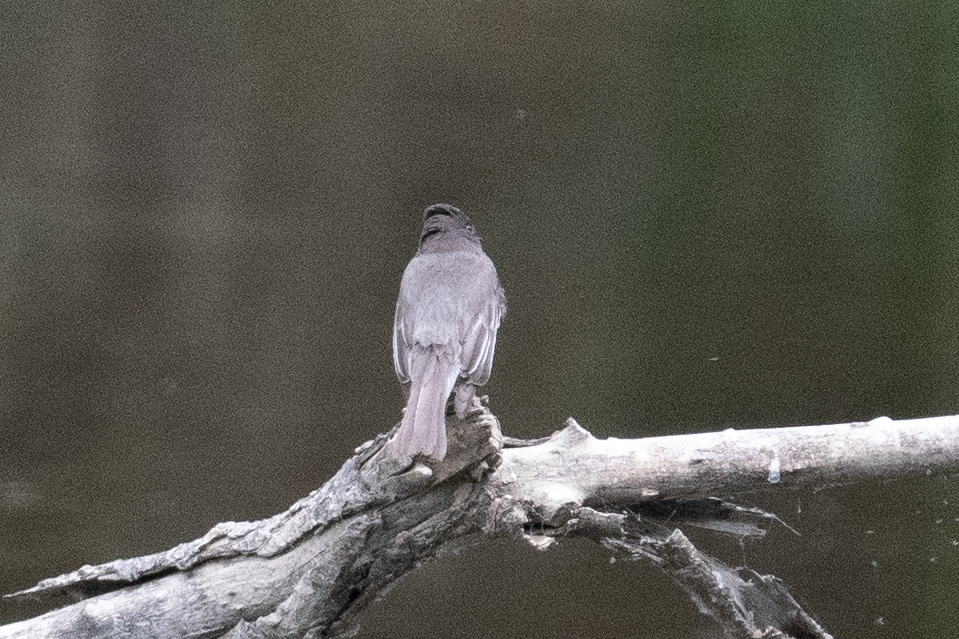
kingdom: Animalia
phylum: Chordata
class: Aves
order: Passeriformes
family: Tyrannidae
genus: Sayornis
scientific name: Sayornis nigricans
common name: Black phoebe
